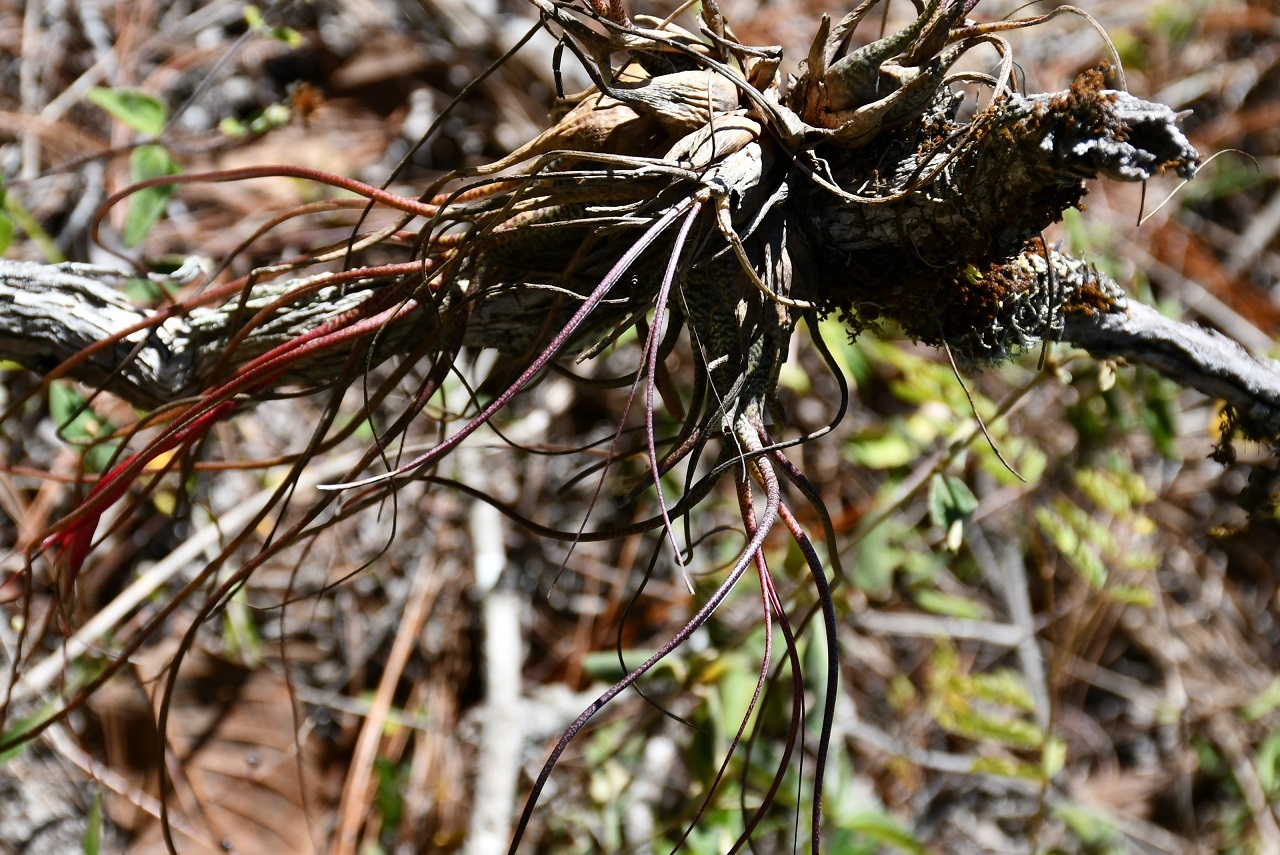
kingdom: Plantae
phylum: Tracheophyta
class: Liliopsida
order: Poales
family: Bromeliaceae
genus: Tillandsia
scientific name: Tillandsia butzii
